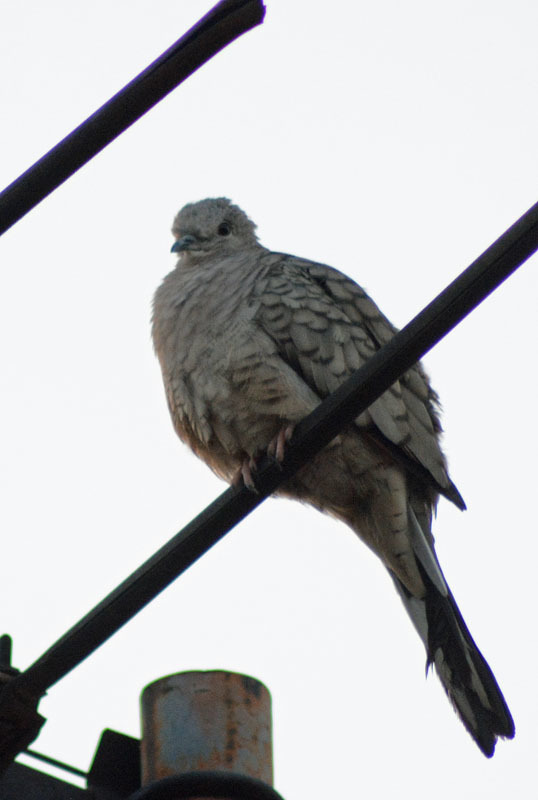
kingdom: Animalia
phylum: Chordata
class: Aves
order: Columbiformes
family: Columbidae
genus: Columbina
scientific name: Columbina inca
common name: Inca dove
